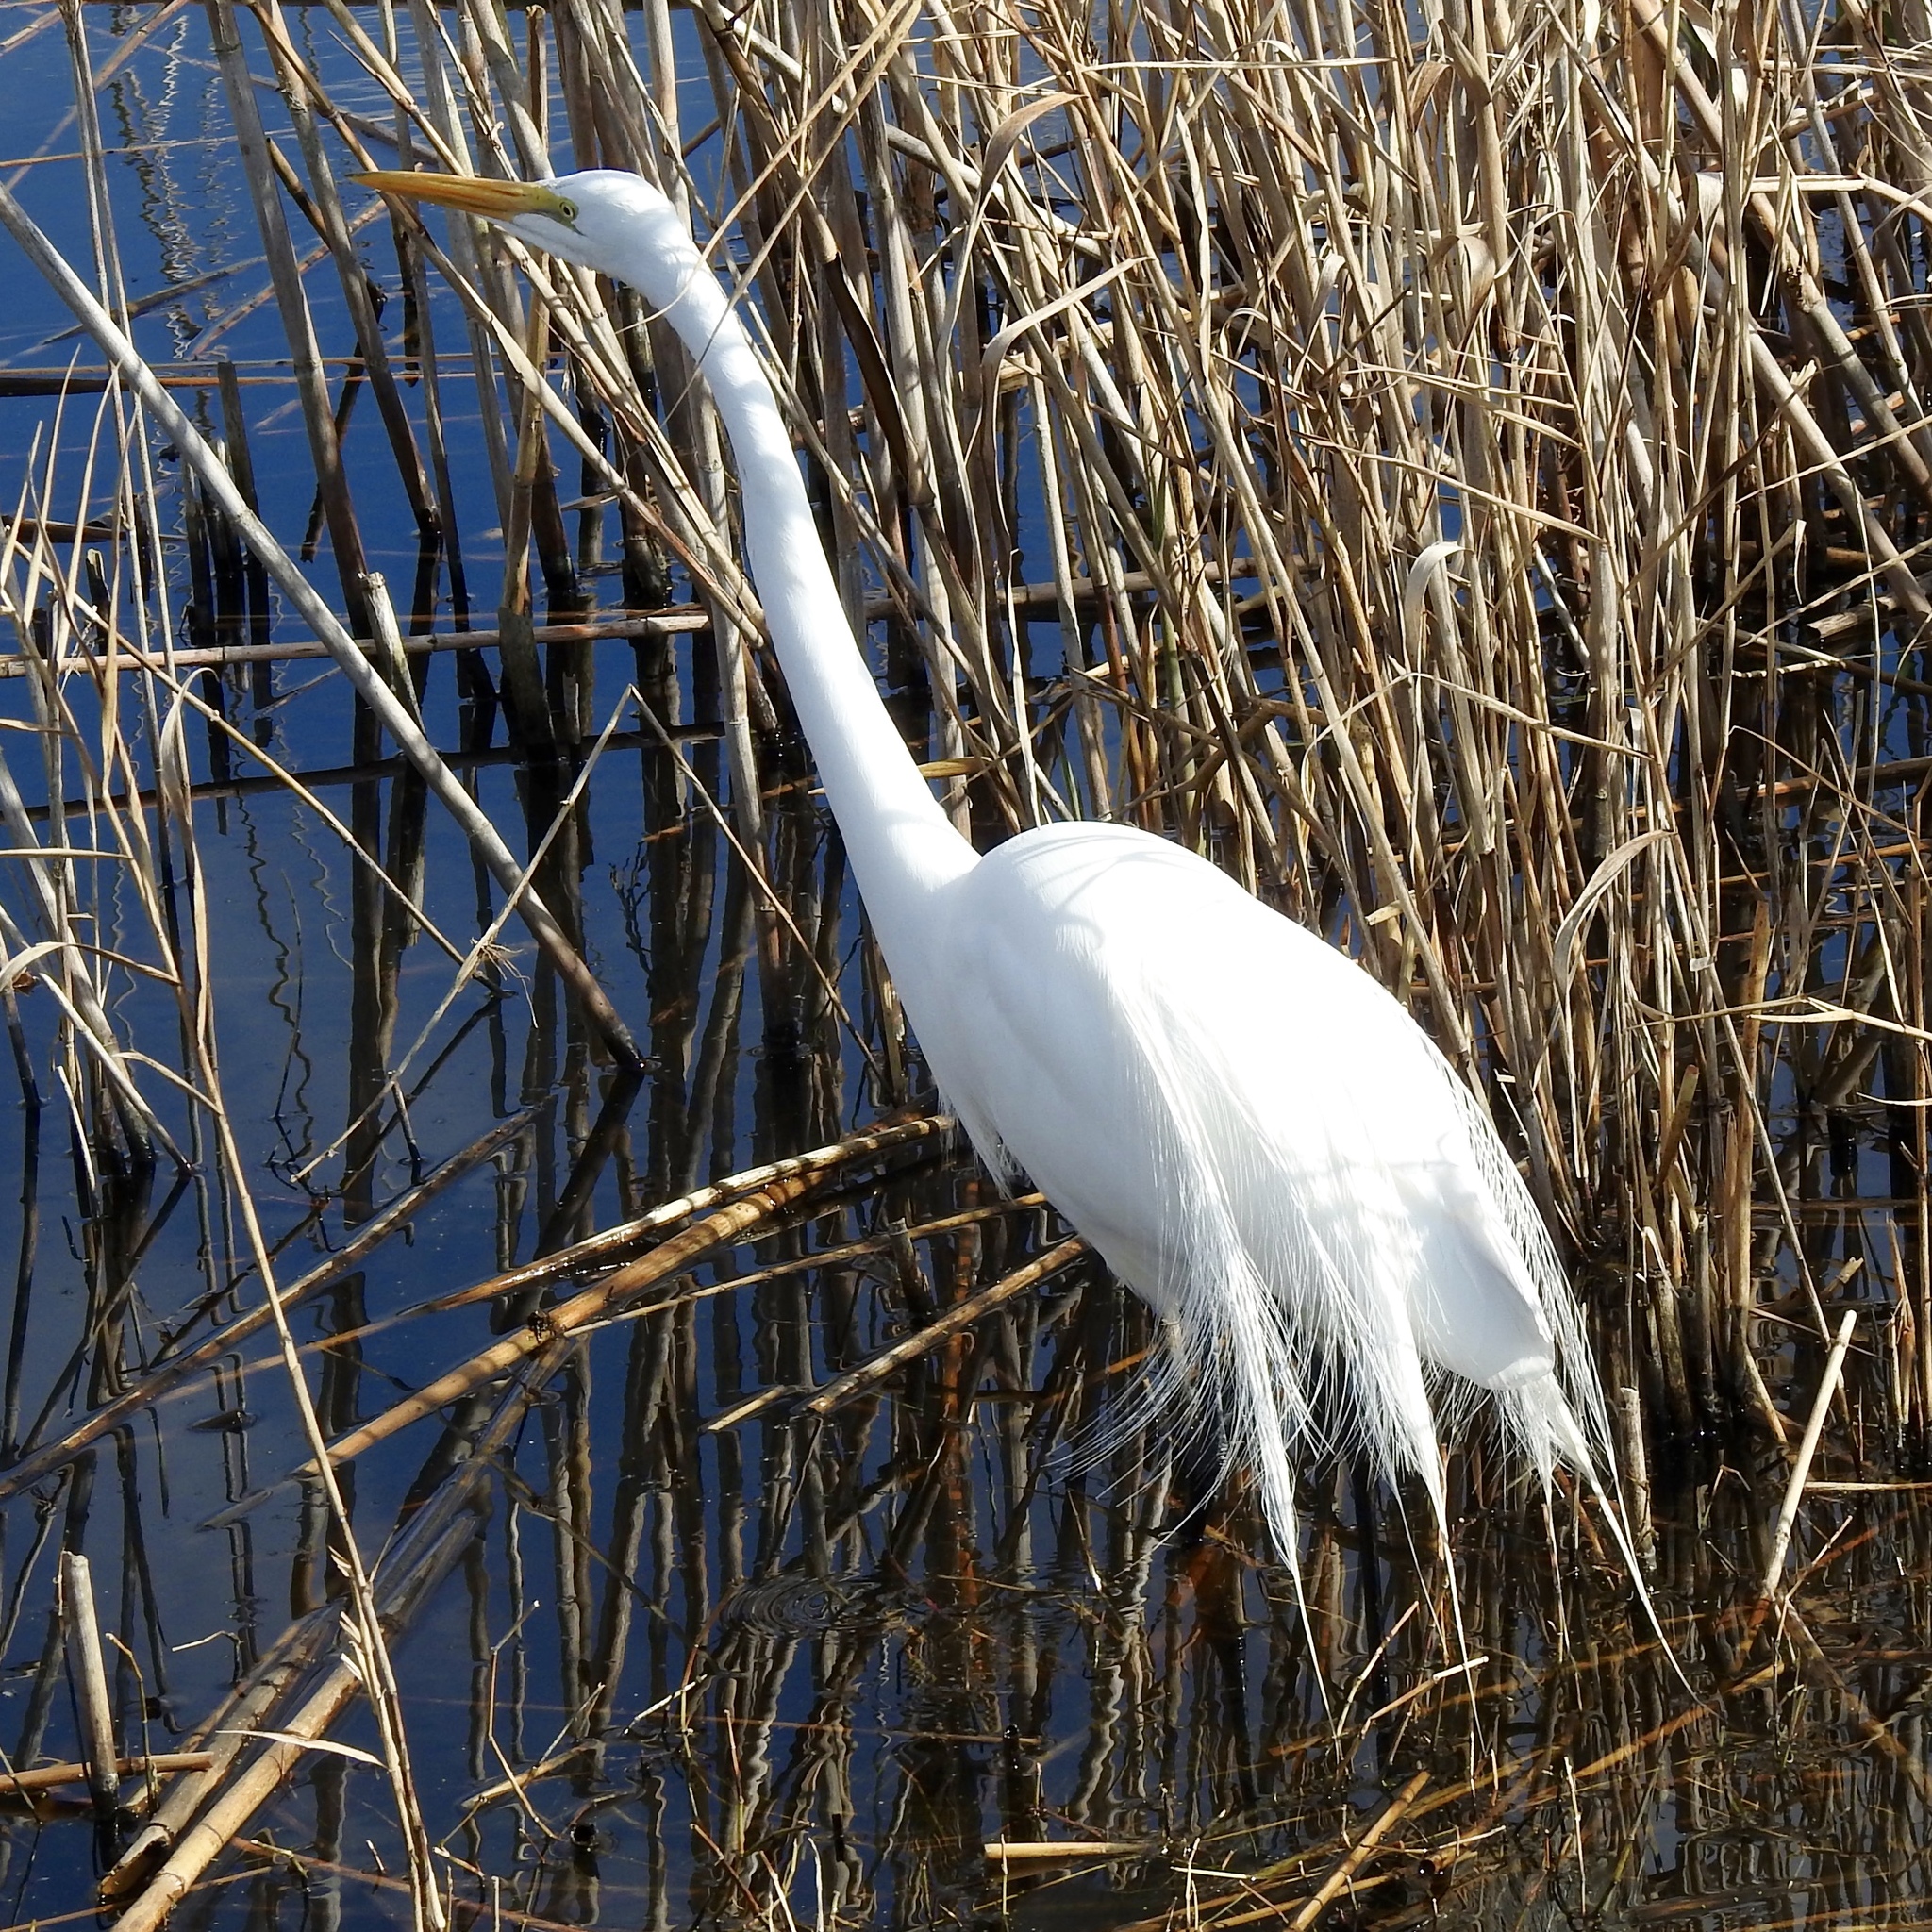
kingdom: Animalia
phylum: Chordata
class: Aves
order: Pelecaniformes
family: Ardeidae
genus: Ardea
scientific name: Ardea alba
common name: Great egret
